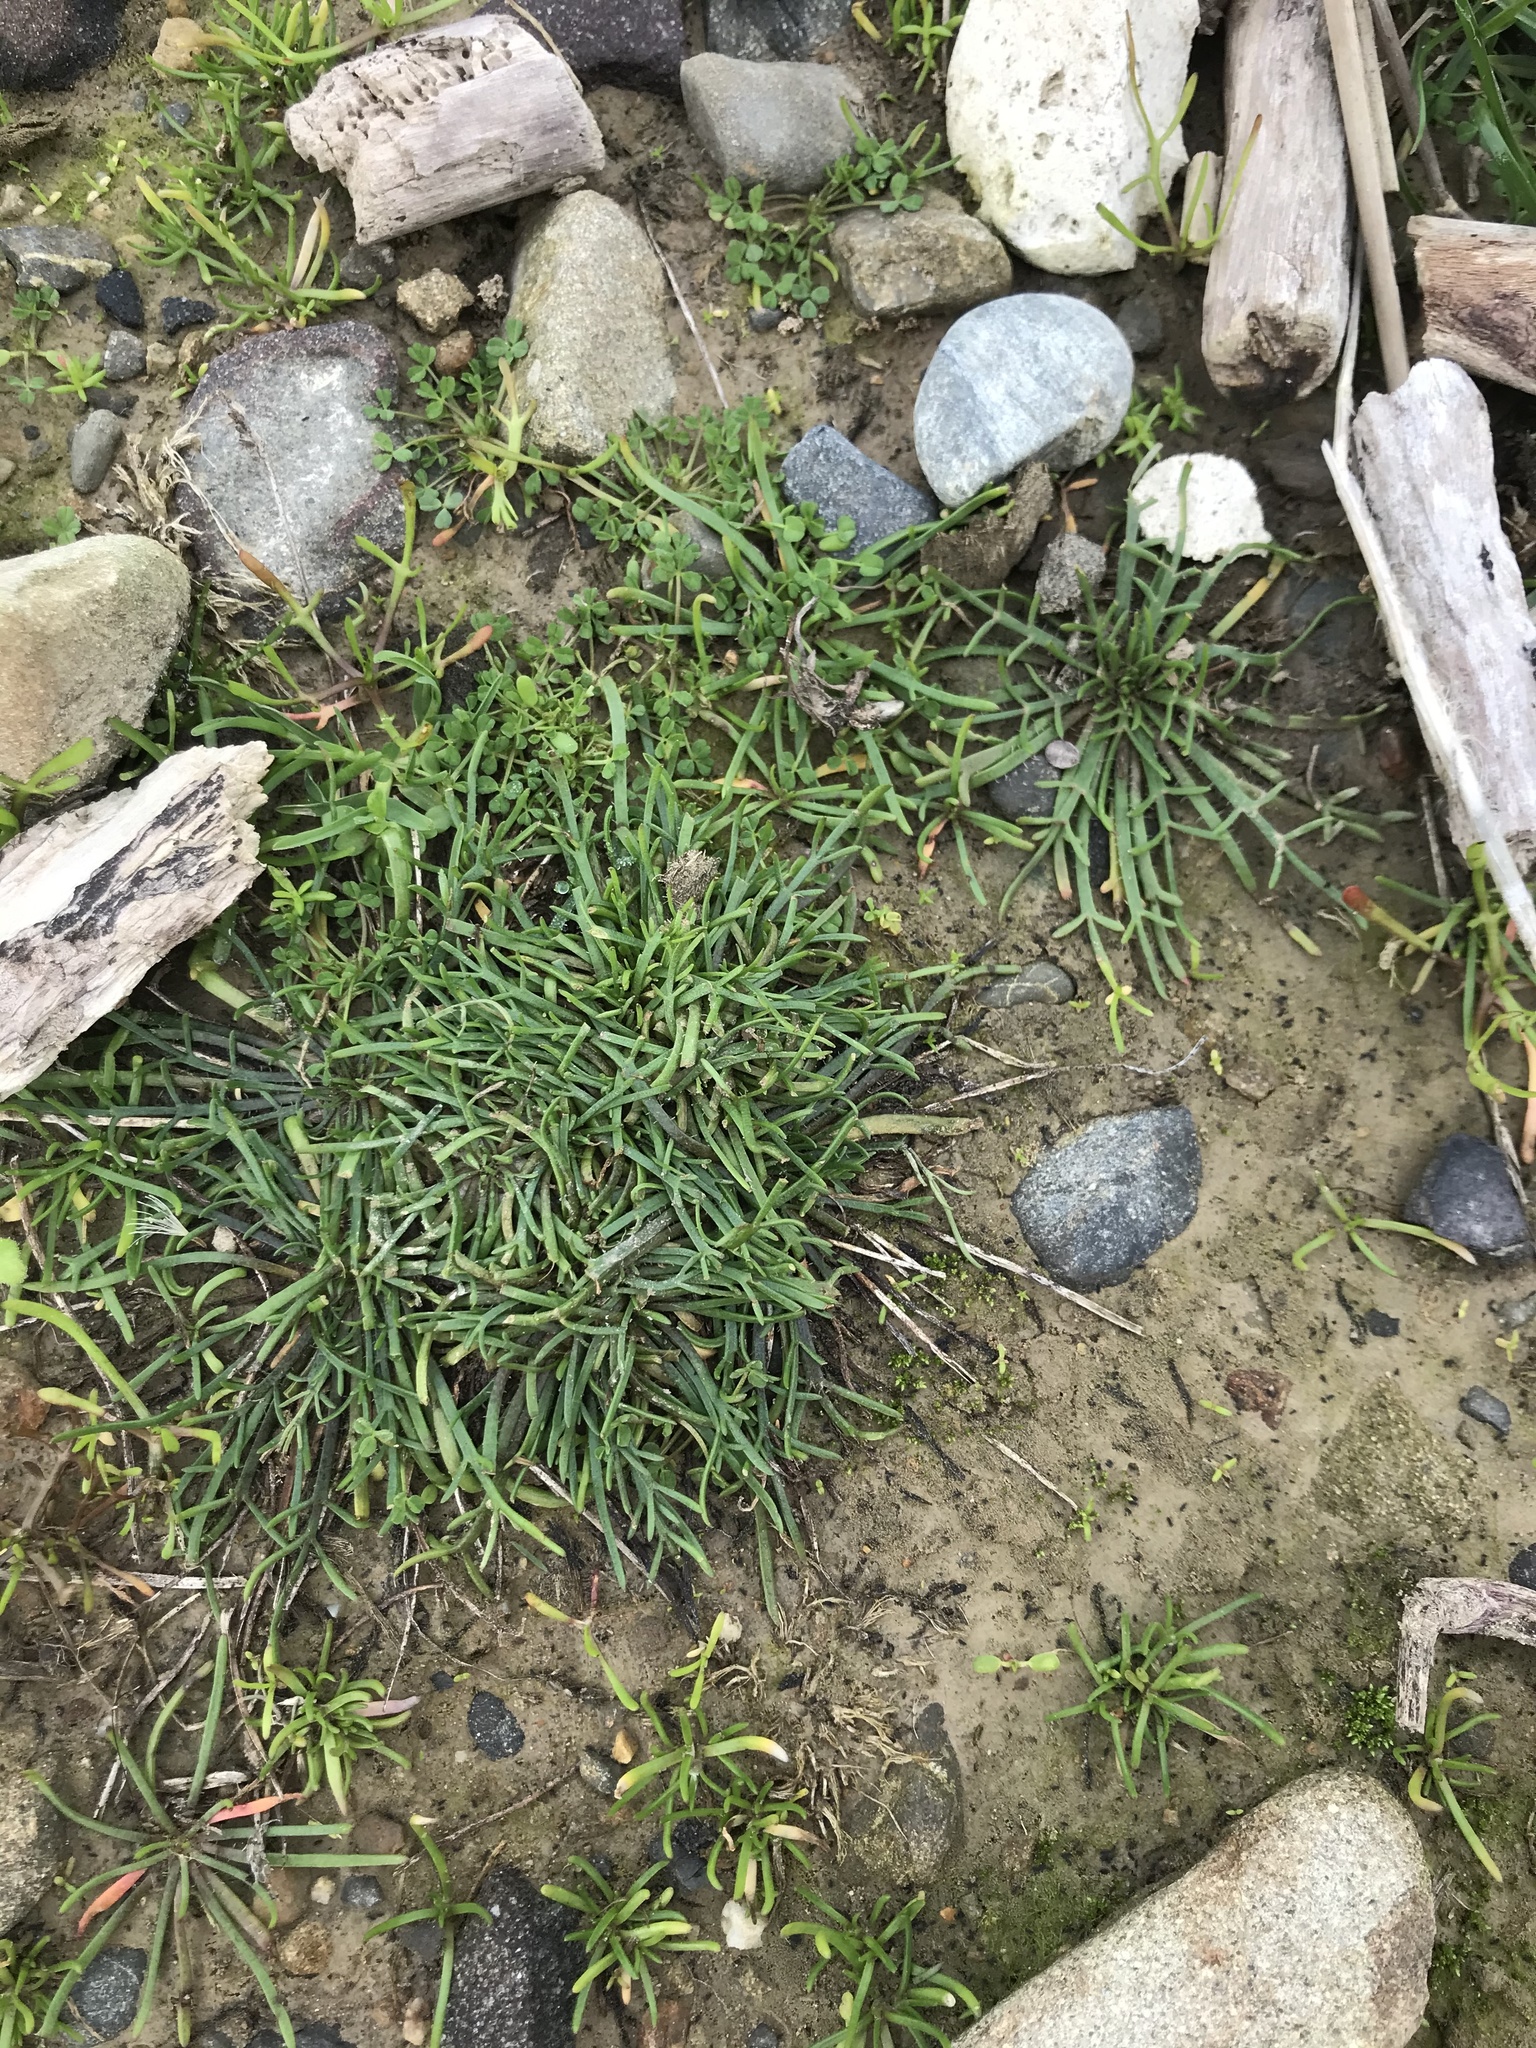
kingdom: Plantae
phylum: Tracheophyta
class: Magnoliopsida
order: Lamiales
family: Plantaginaceae
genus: Plantago
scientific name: Plantago coronopus
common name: Buck's-horn plantain
